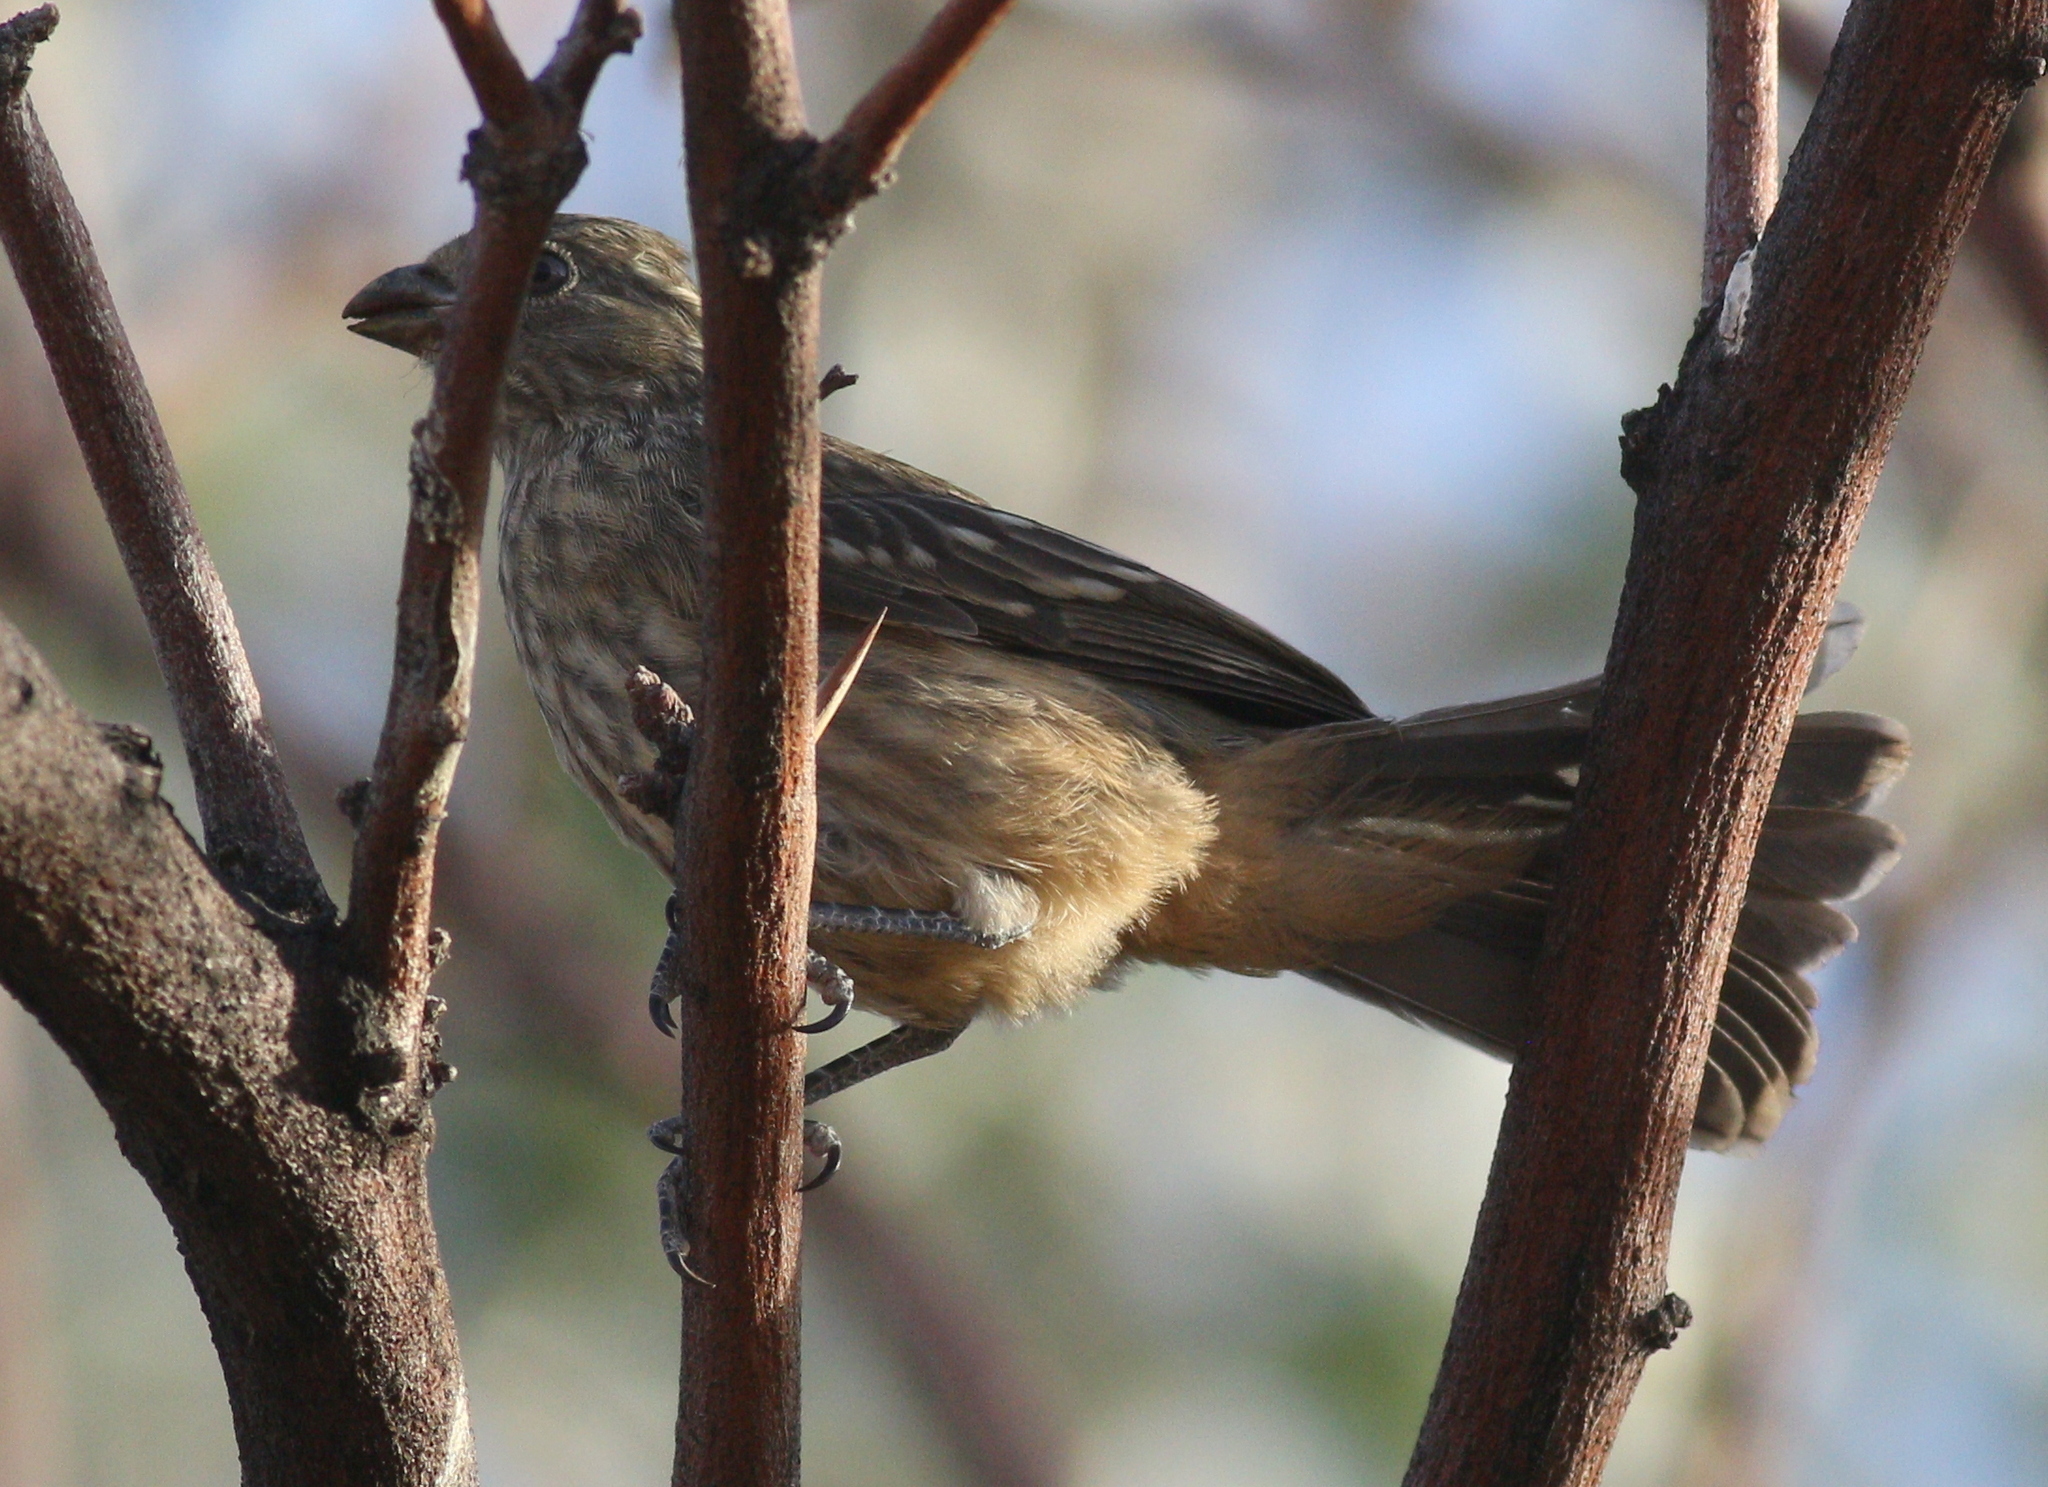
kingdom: Animalia
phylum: Chordata
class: Aves
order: Passeriformes
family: Cotingidae
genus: Phytotoma
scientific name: Phytotoma rutila
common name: White-tipped plantcutter
